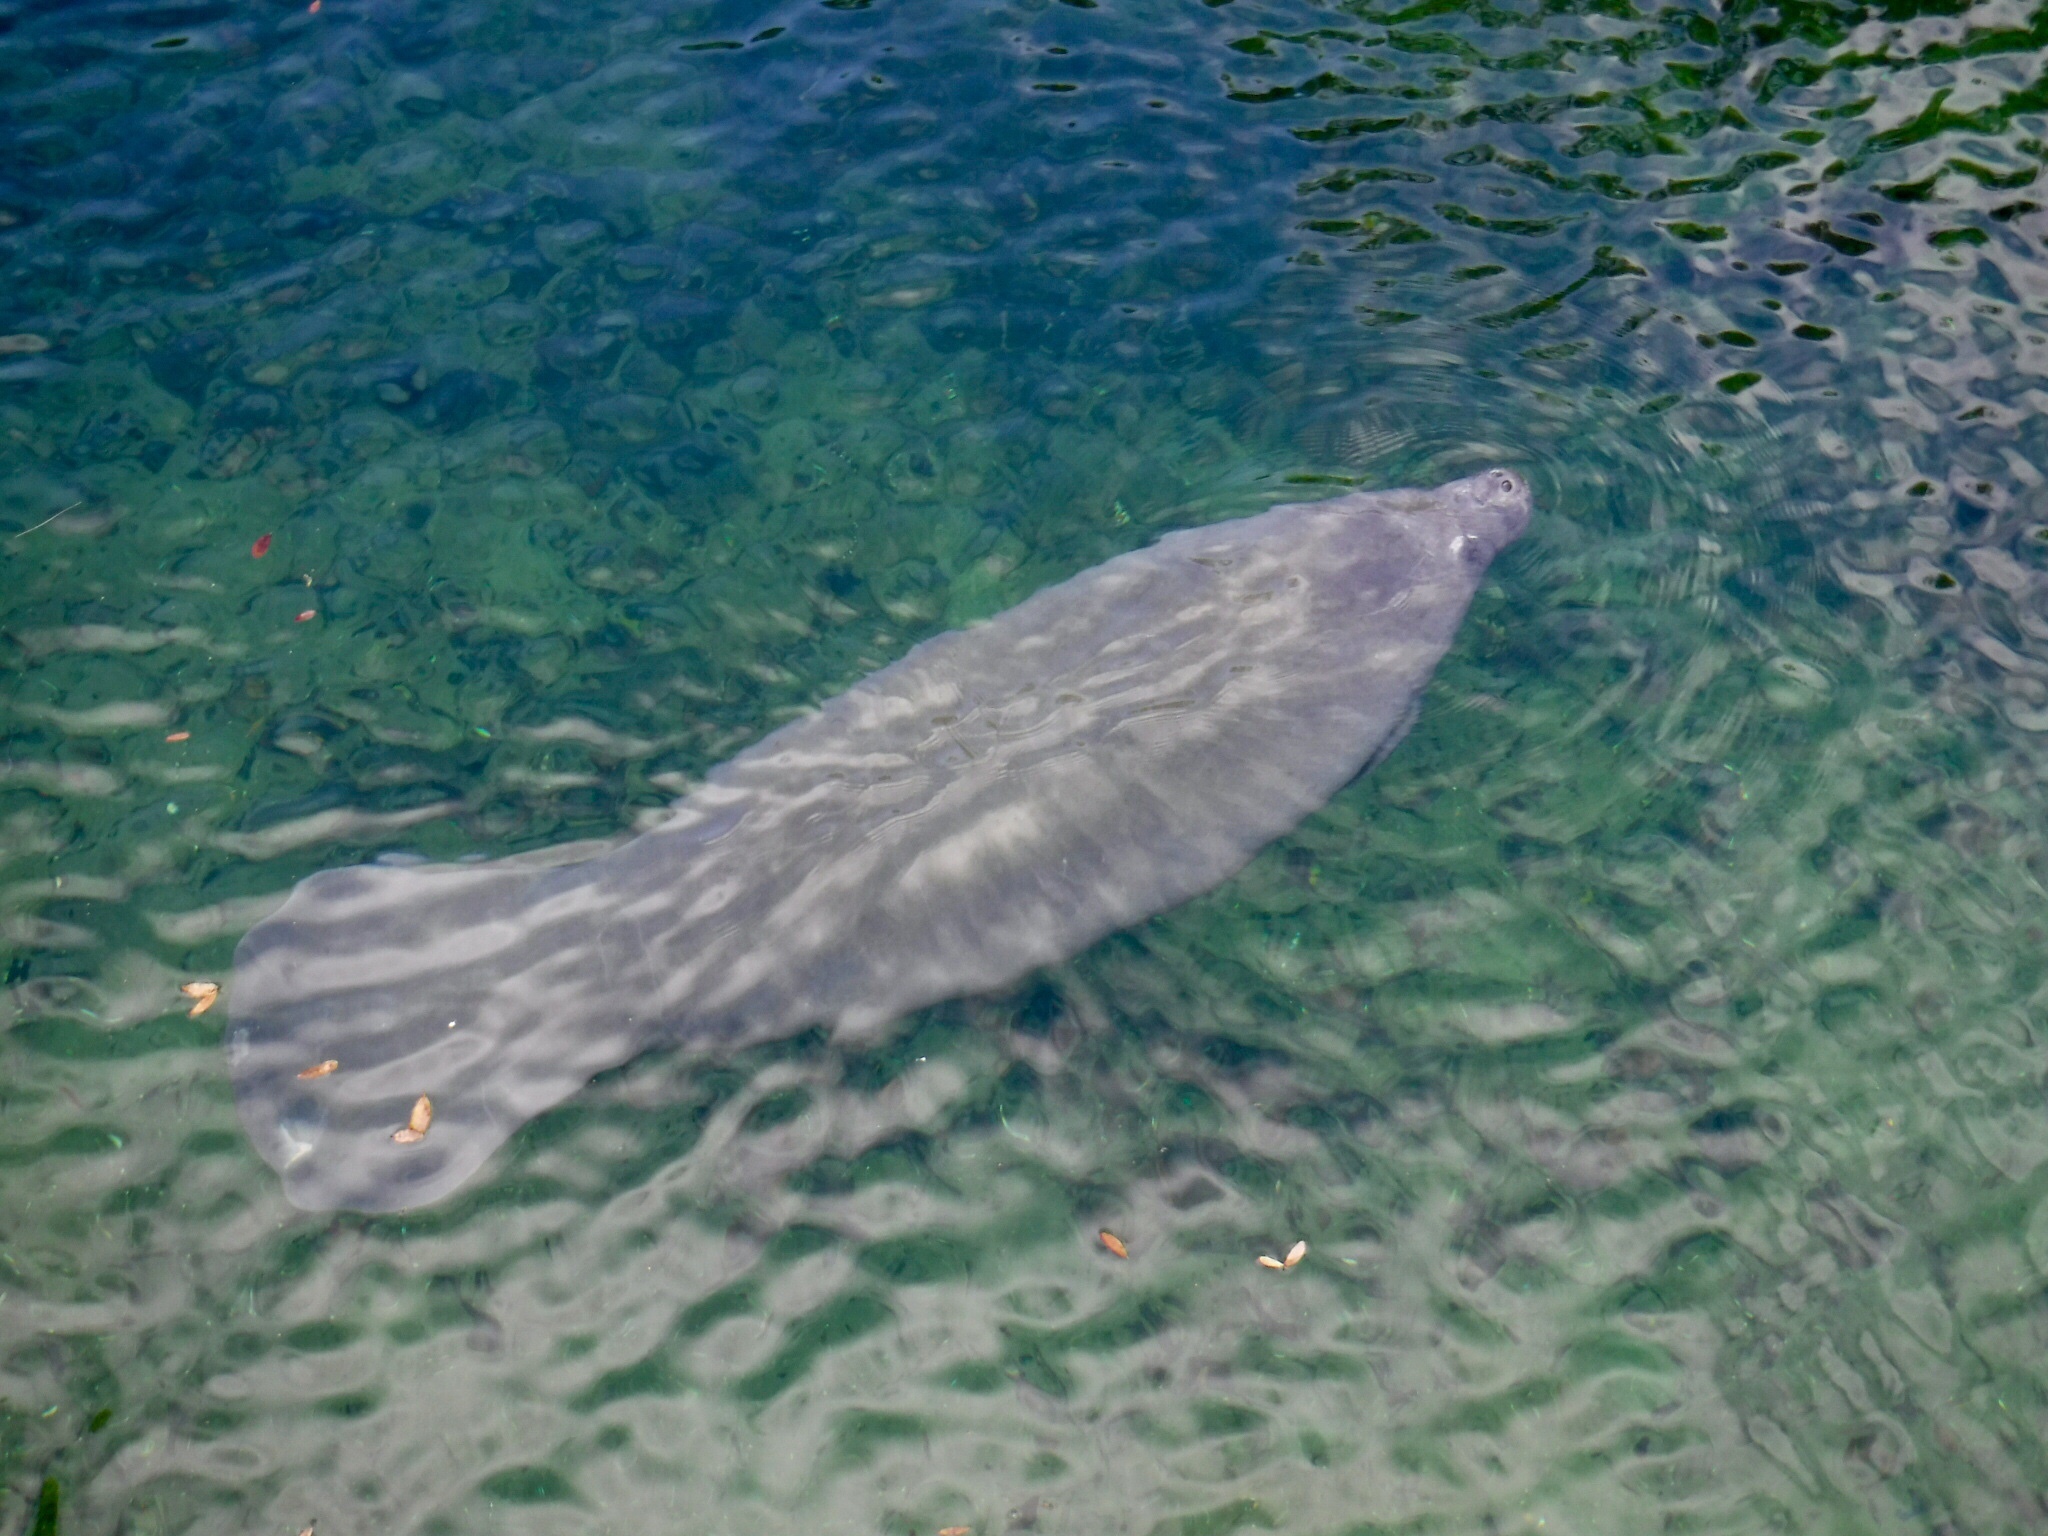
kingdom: Animalia
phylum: Chordata
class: Mammalia
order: Sirenia
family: Trichechidae
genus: Trichechus
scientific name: Trichechus manatus
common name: West indian manatee
